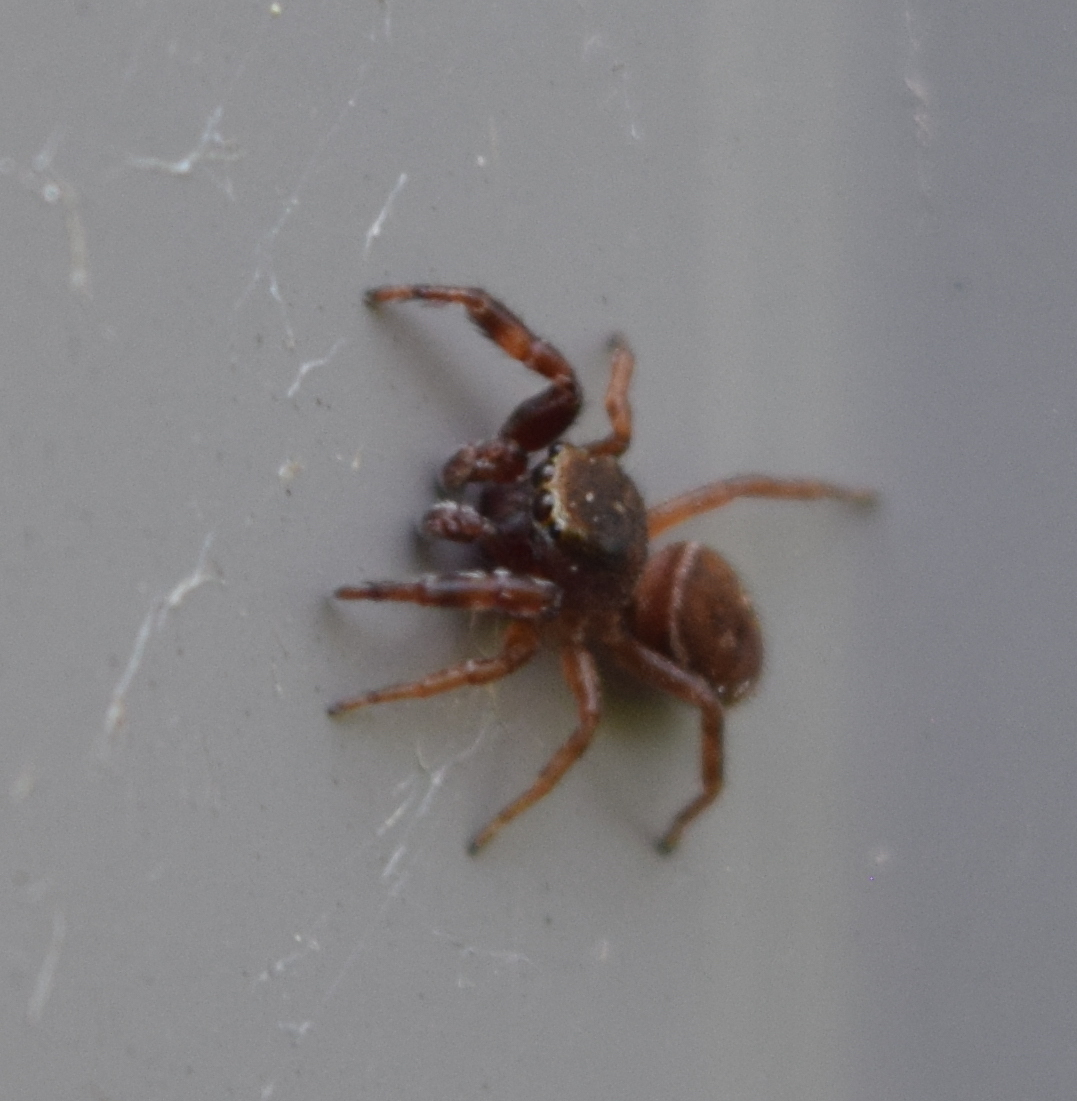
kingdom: Animalia
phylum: Arthropoda
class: Arachnida
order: Araneae
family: Salticidae
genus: Ghelna
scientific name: Ghelna canadensis
